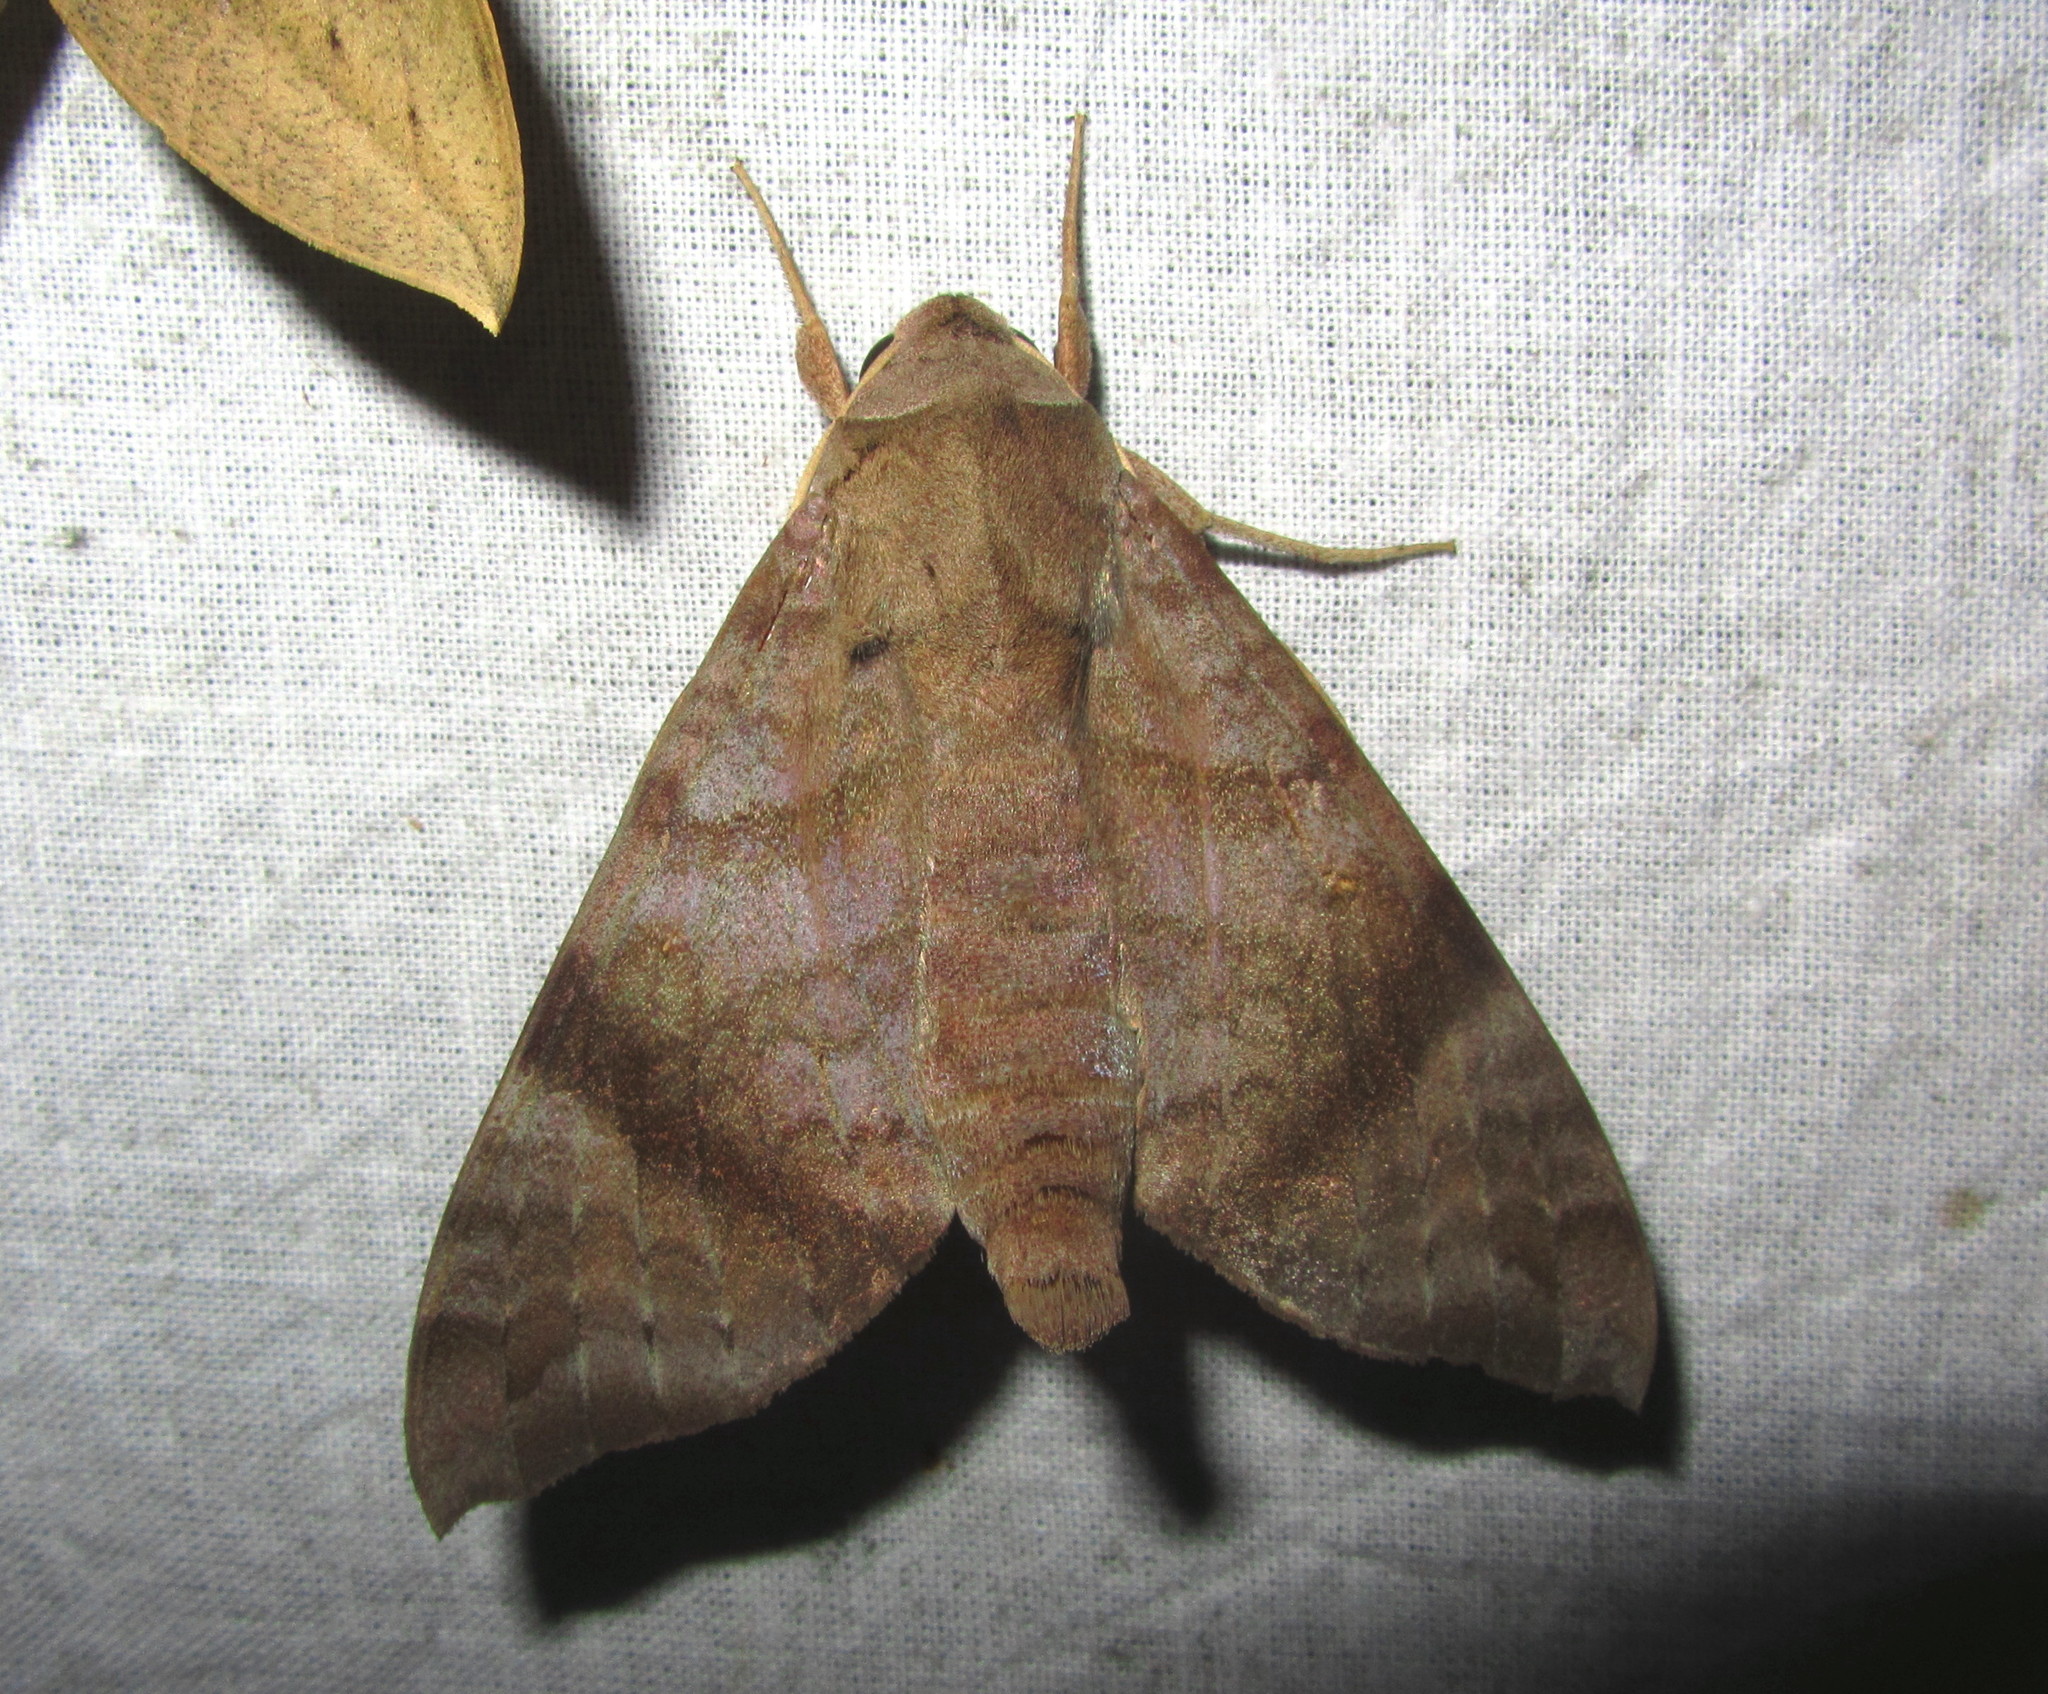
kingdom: Animalia
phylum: Arthropoda
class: Insecta
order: Lepidoptera
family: Sphingidae
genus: Acosmeryx
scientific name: Acosmeryx shervillii
